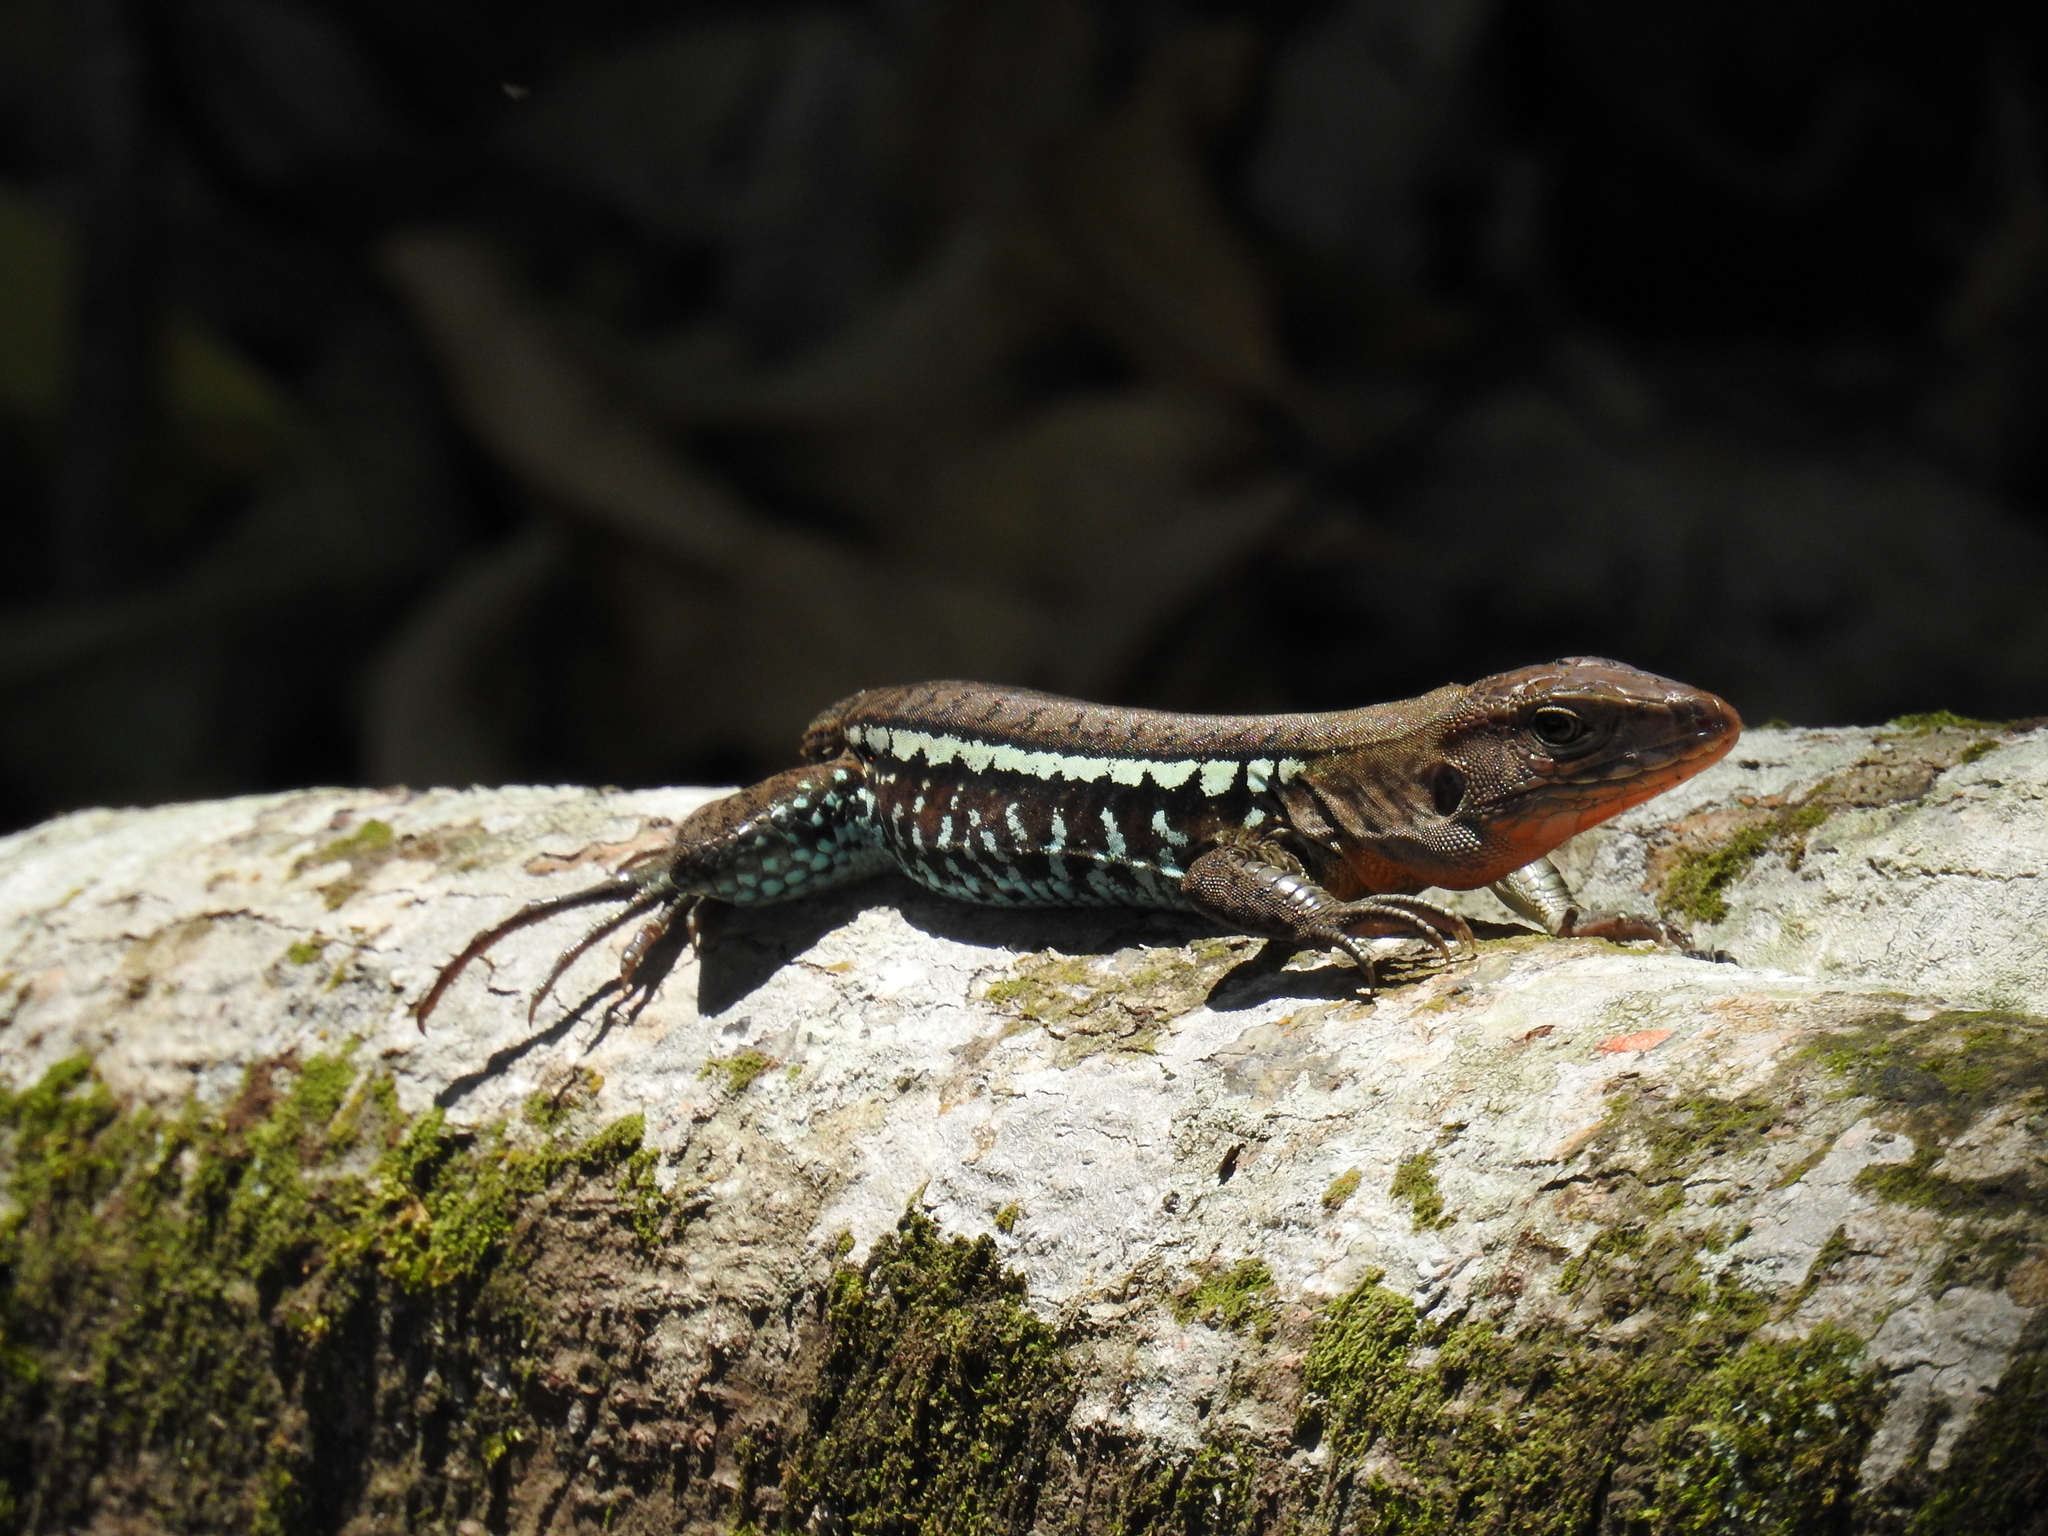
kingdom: Animalia
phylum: Chordata
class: Squamata
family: Teiidae
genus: Holcosus
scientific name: Holcosus undulatus
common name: Rainbow ameiva
